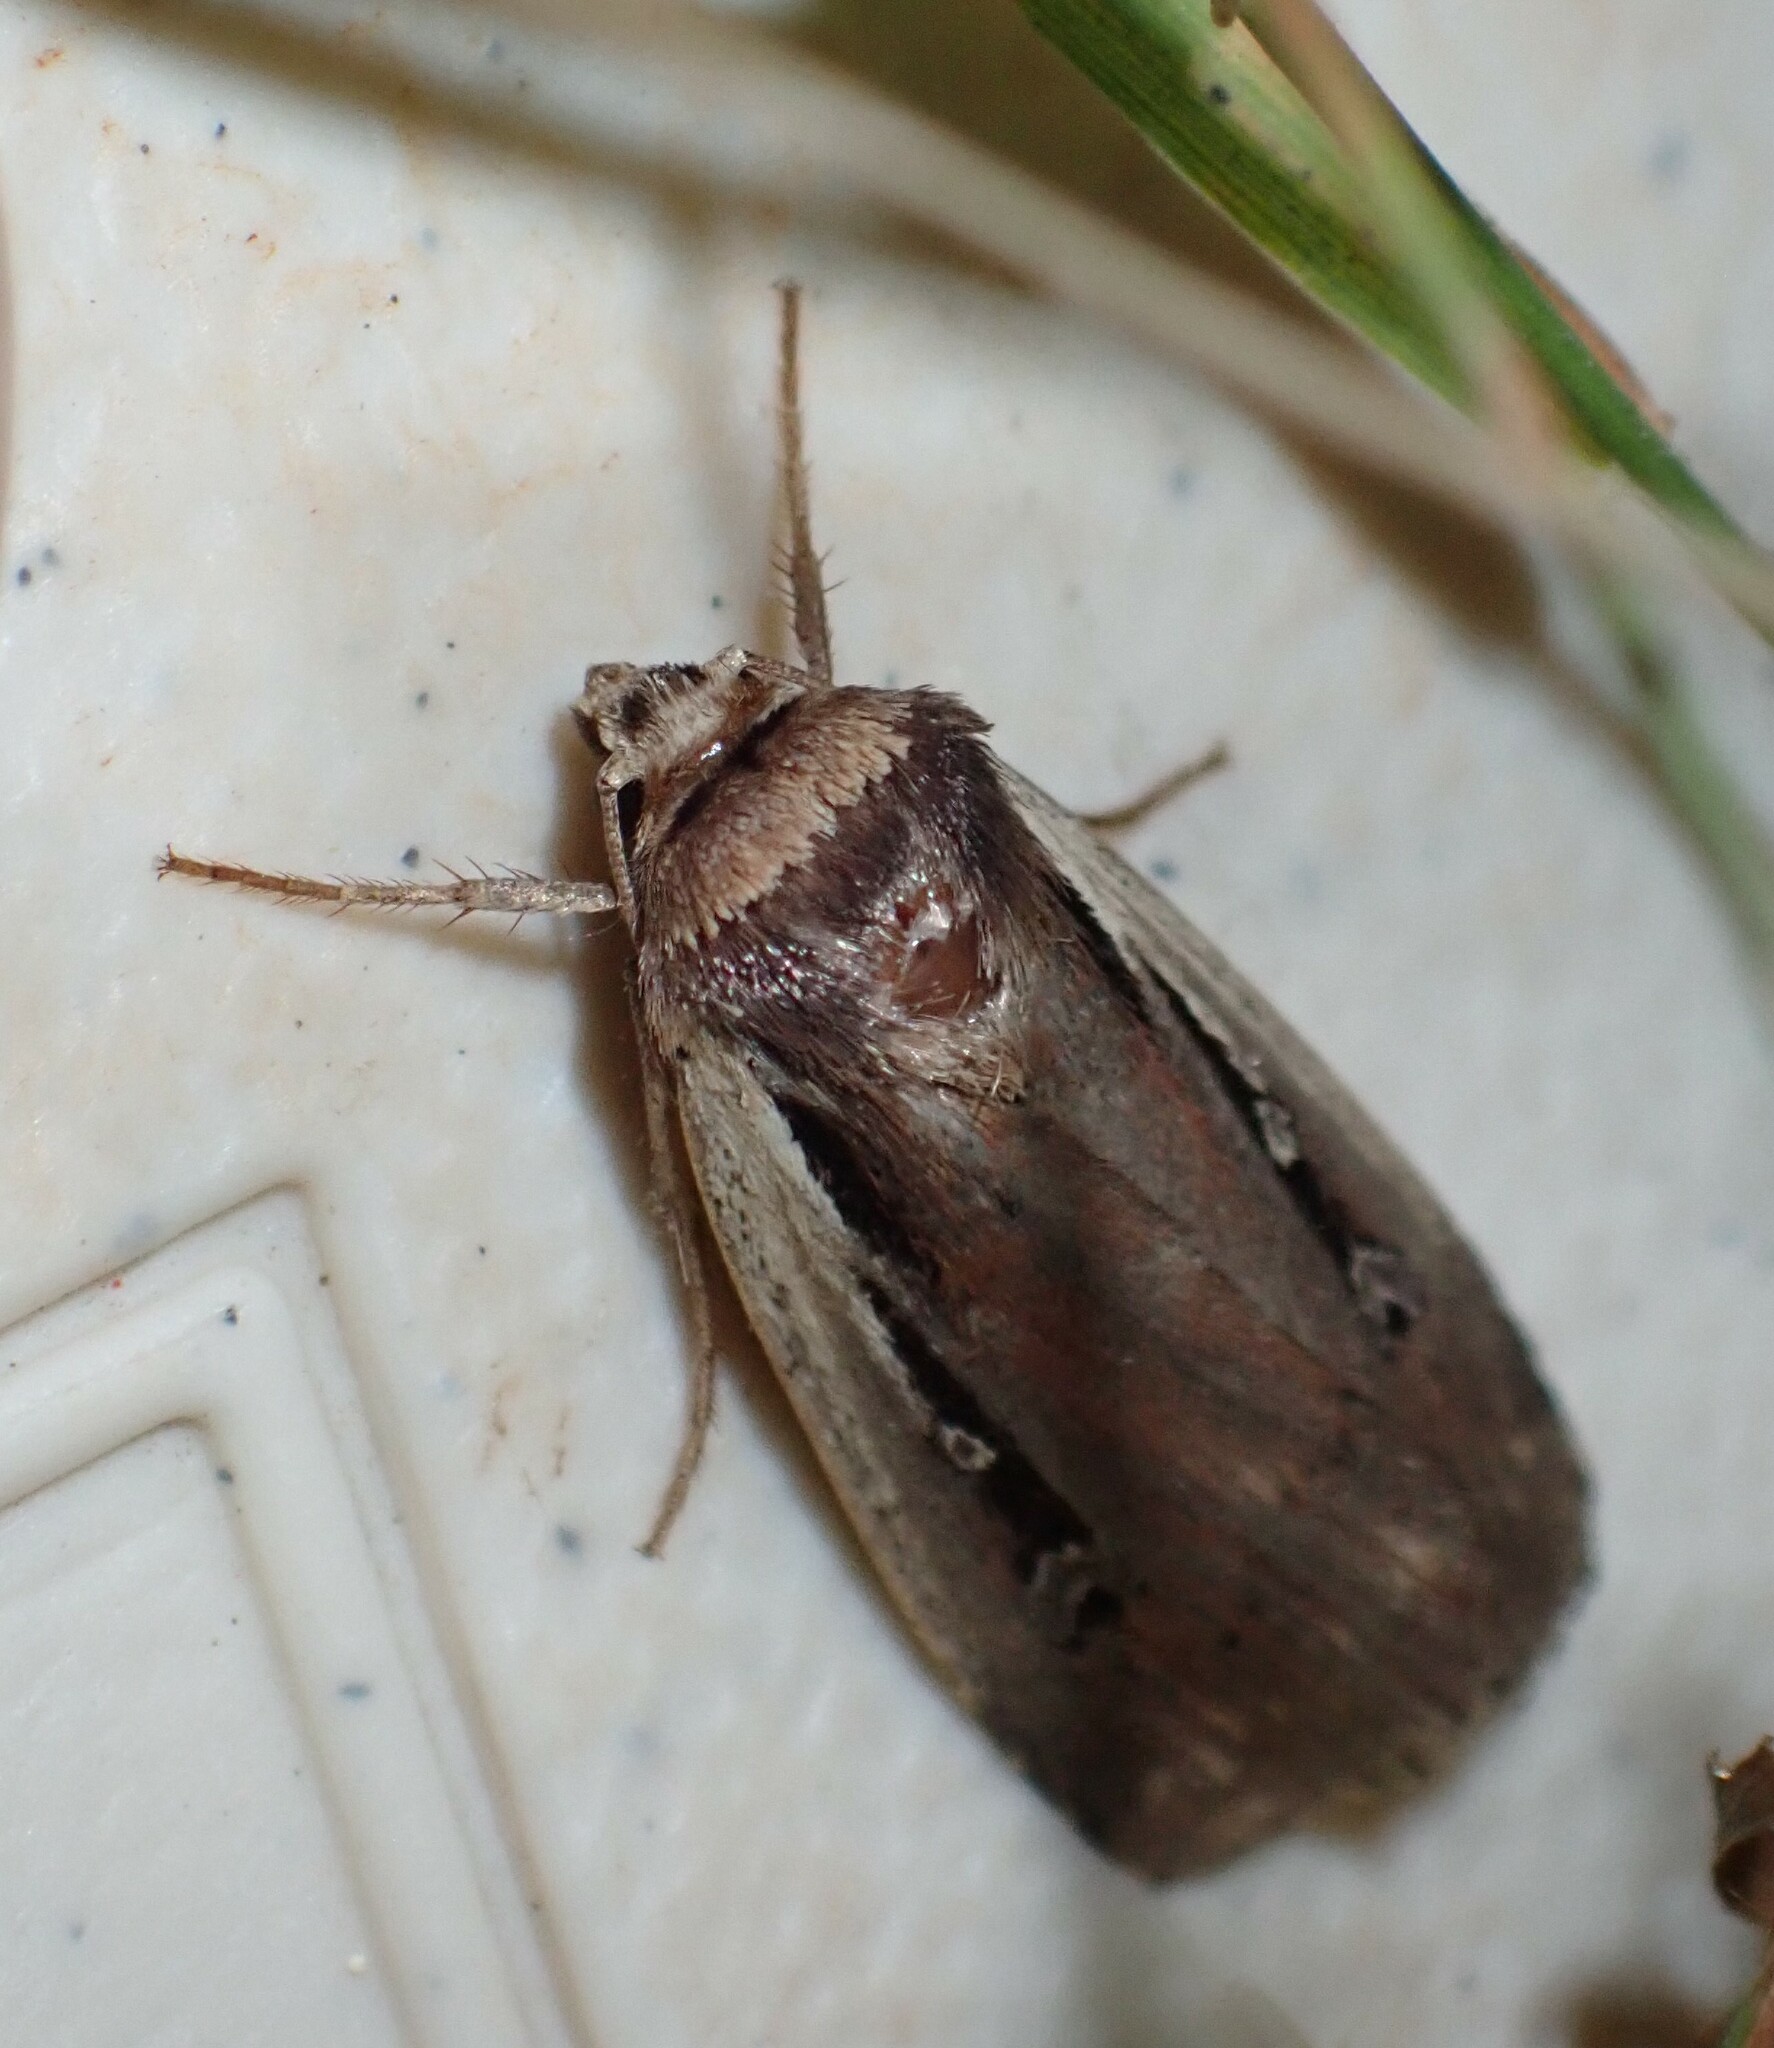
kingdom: Animalia
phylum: Arthropoda
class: Insecta
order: Lepidoptera
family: Noctuidae
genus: Ochropleura
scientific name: Ochropleura implecta
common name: Flame-shouldered dart
